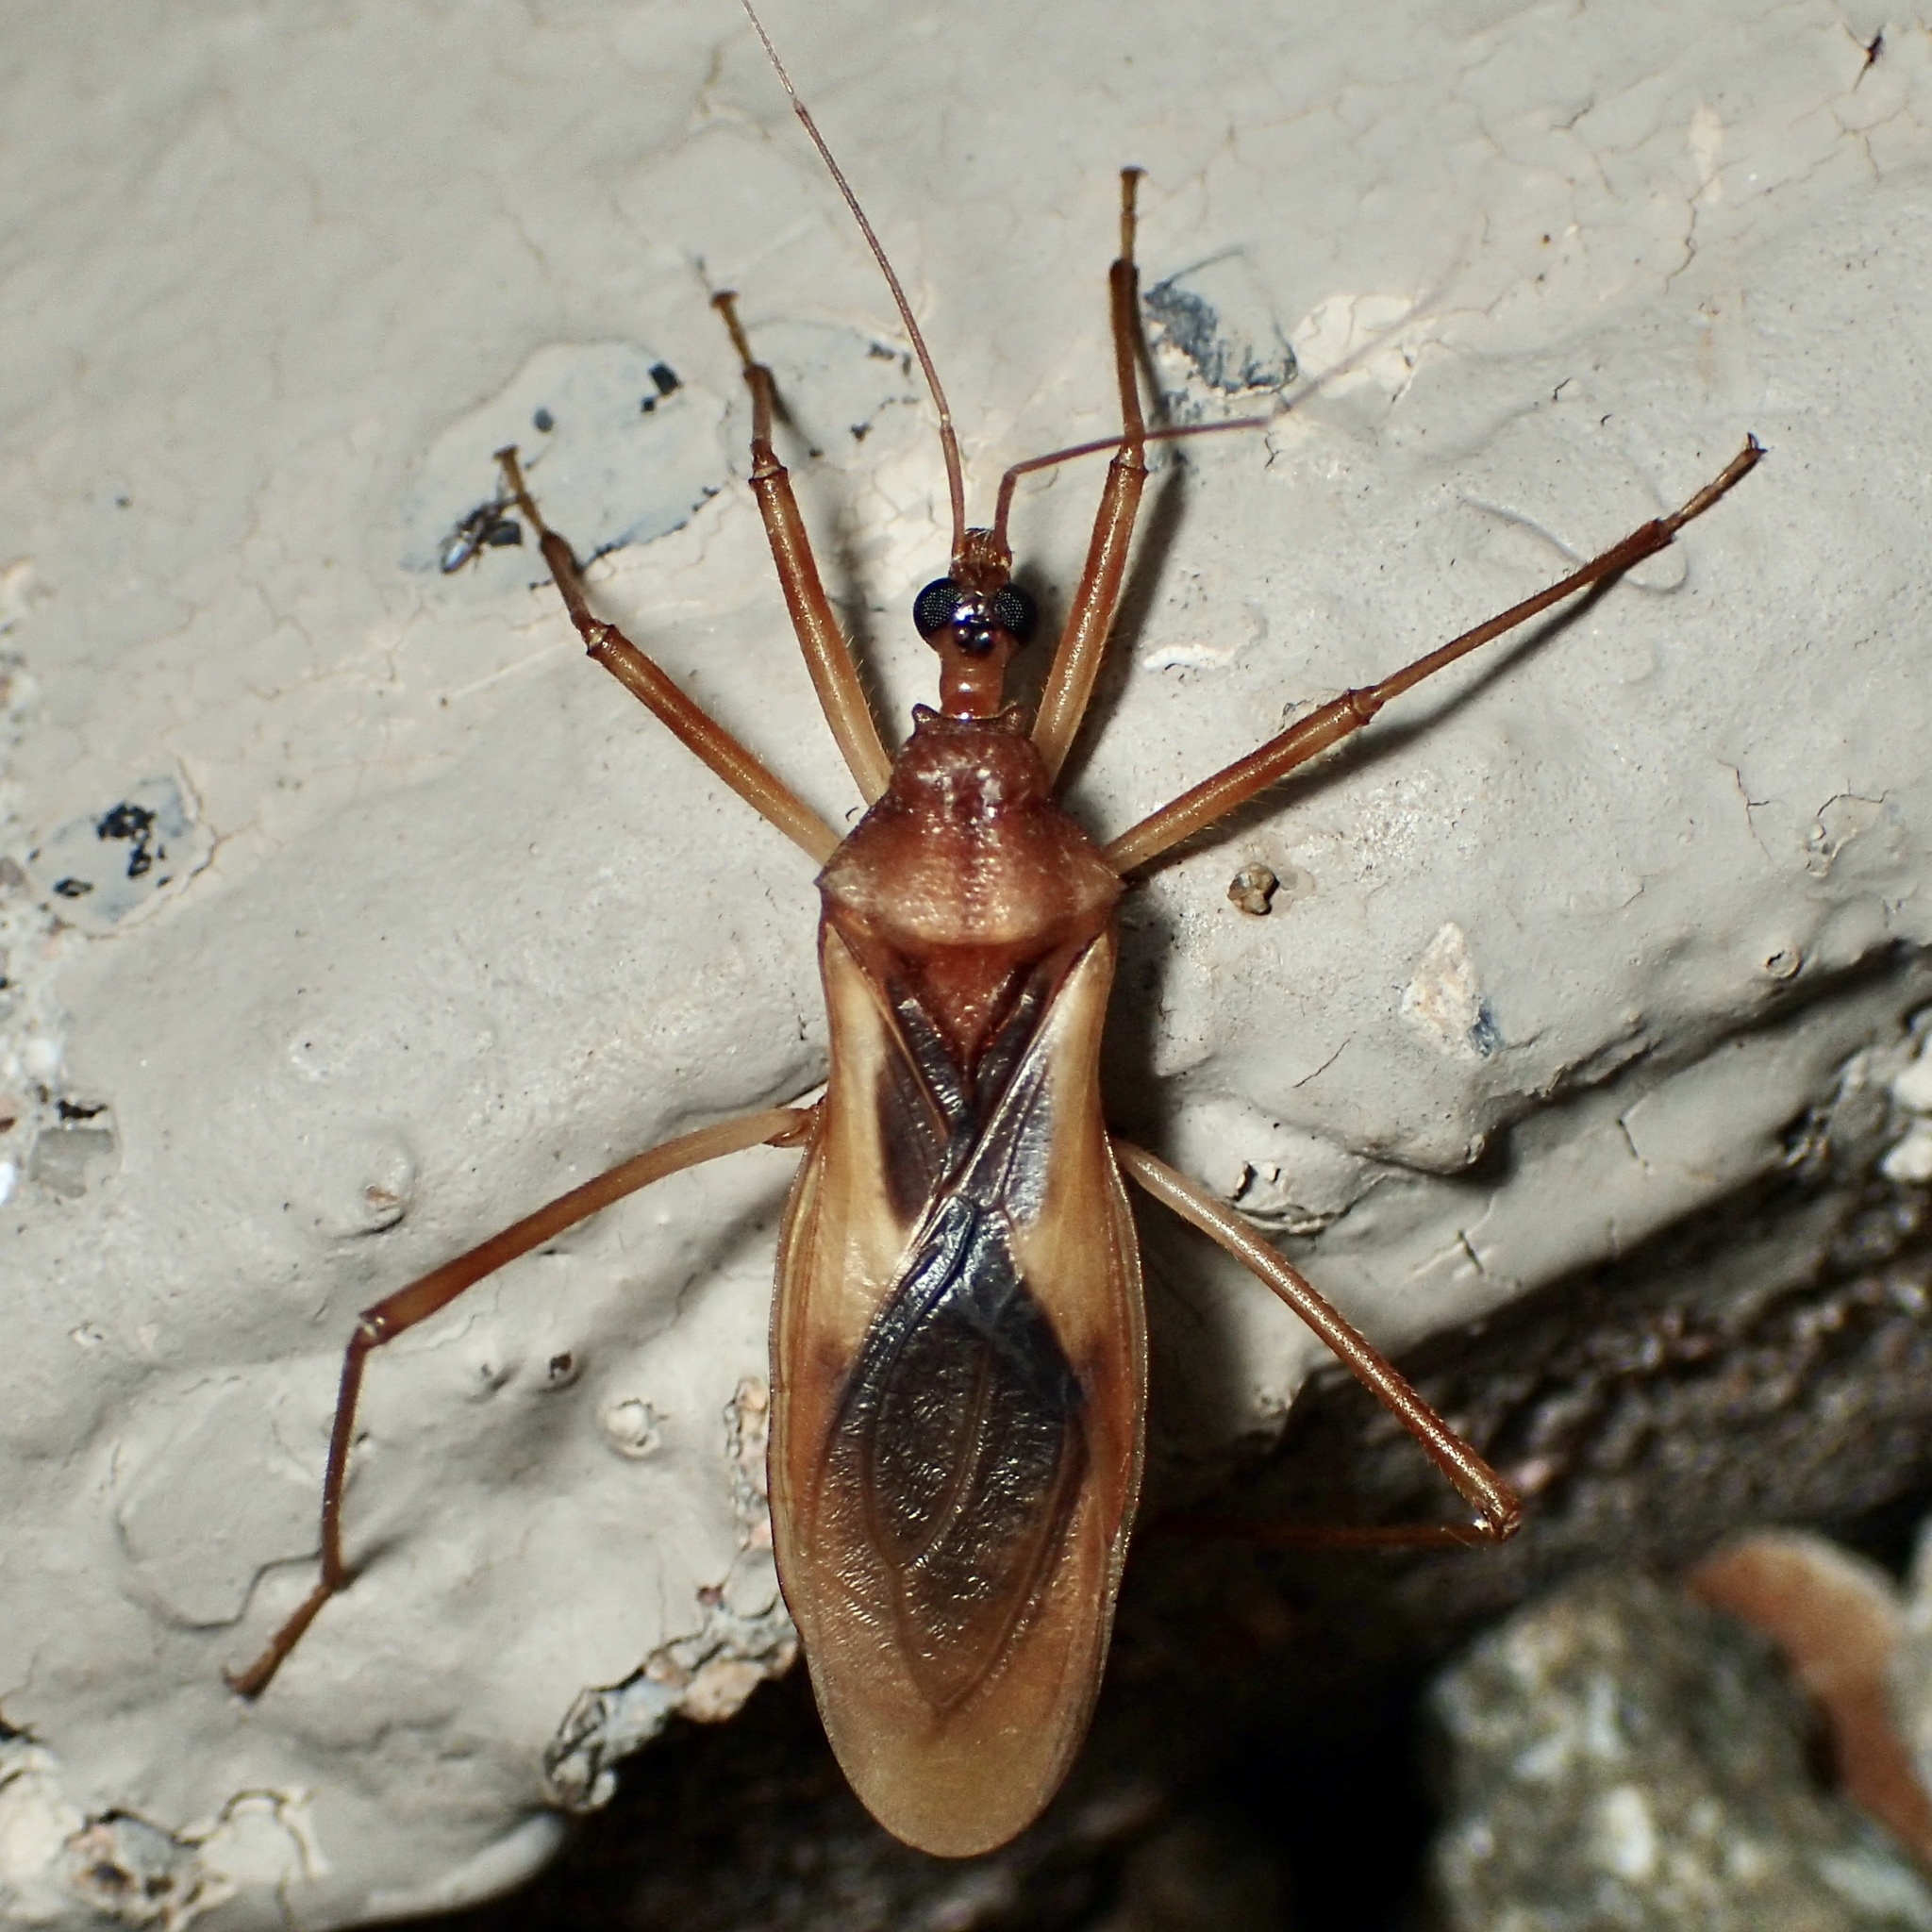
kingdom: Animalia
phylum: Arthropoda
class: Insecta
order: Hemiptera
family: Reduviidae
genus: Zeluroides
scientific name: Zeluroides americanus
